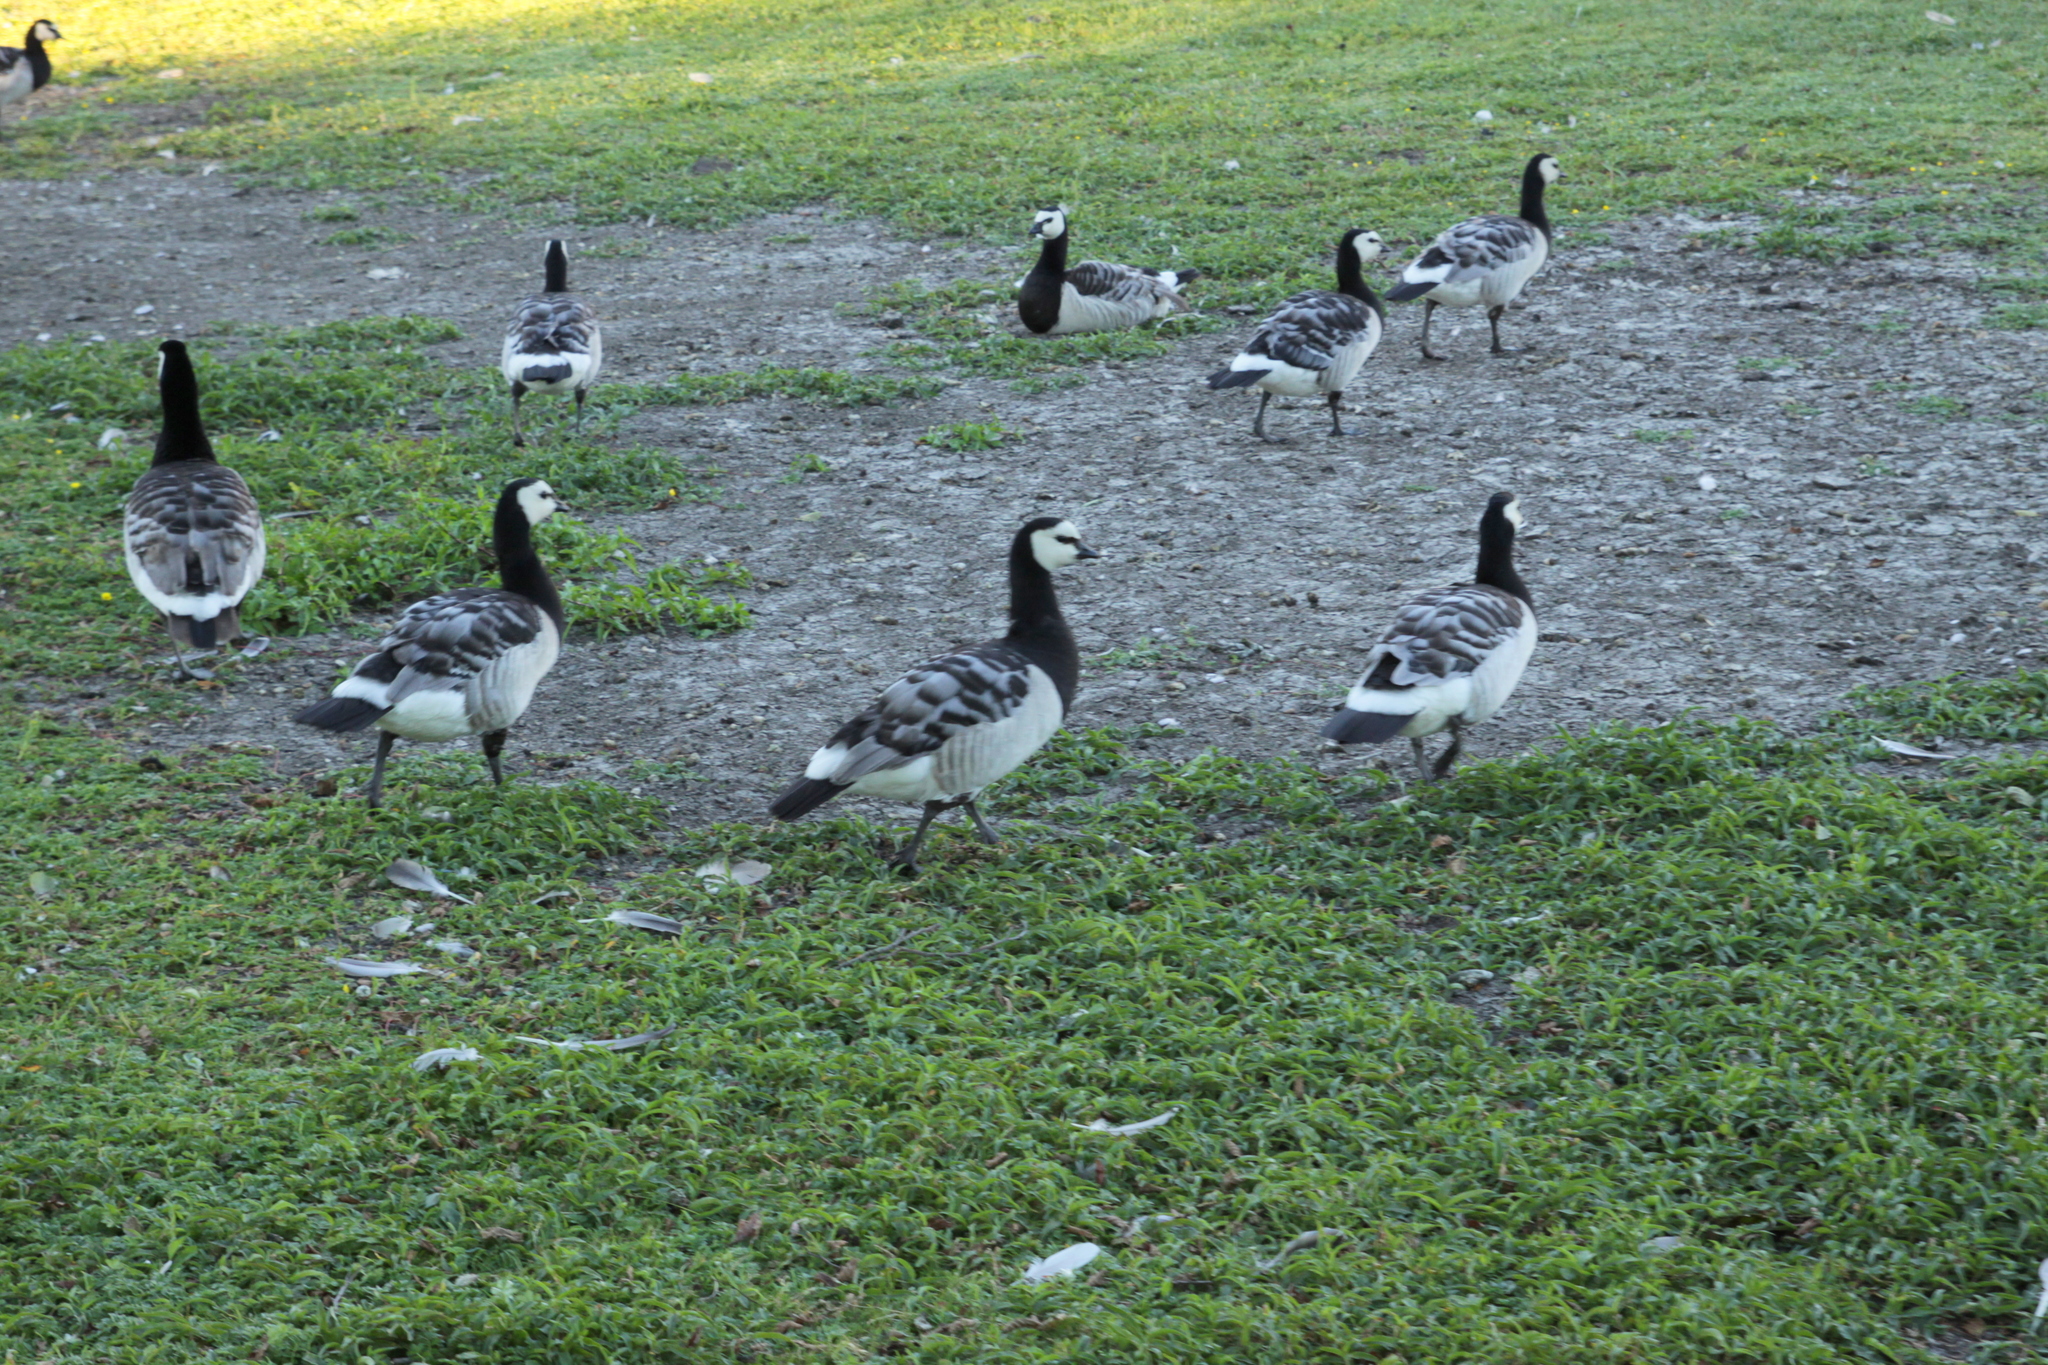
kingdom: Animalia
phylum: Chordata
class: Aves
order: Anseriformes
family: Anatidae
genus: Branta
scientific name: Branta leucopsis
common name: Barnacle goose
